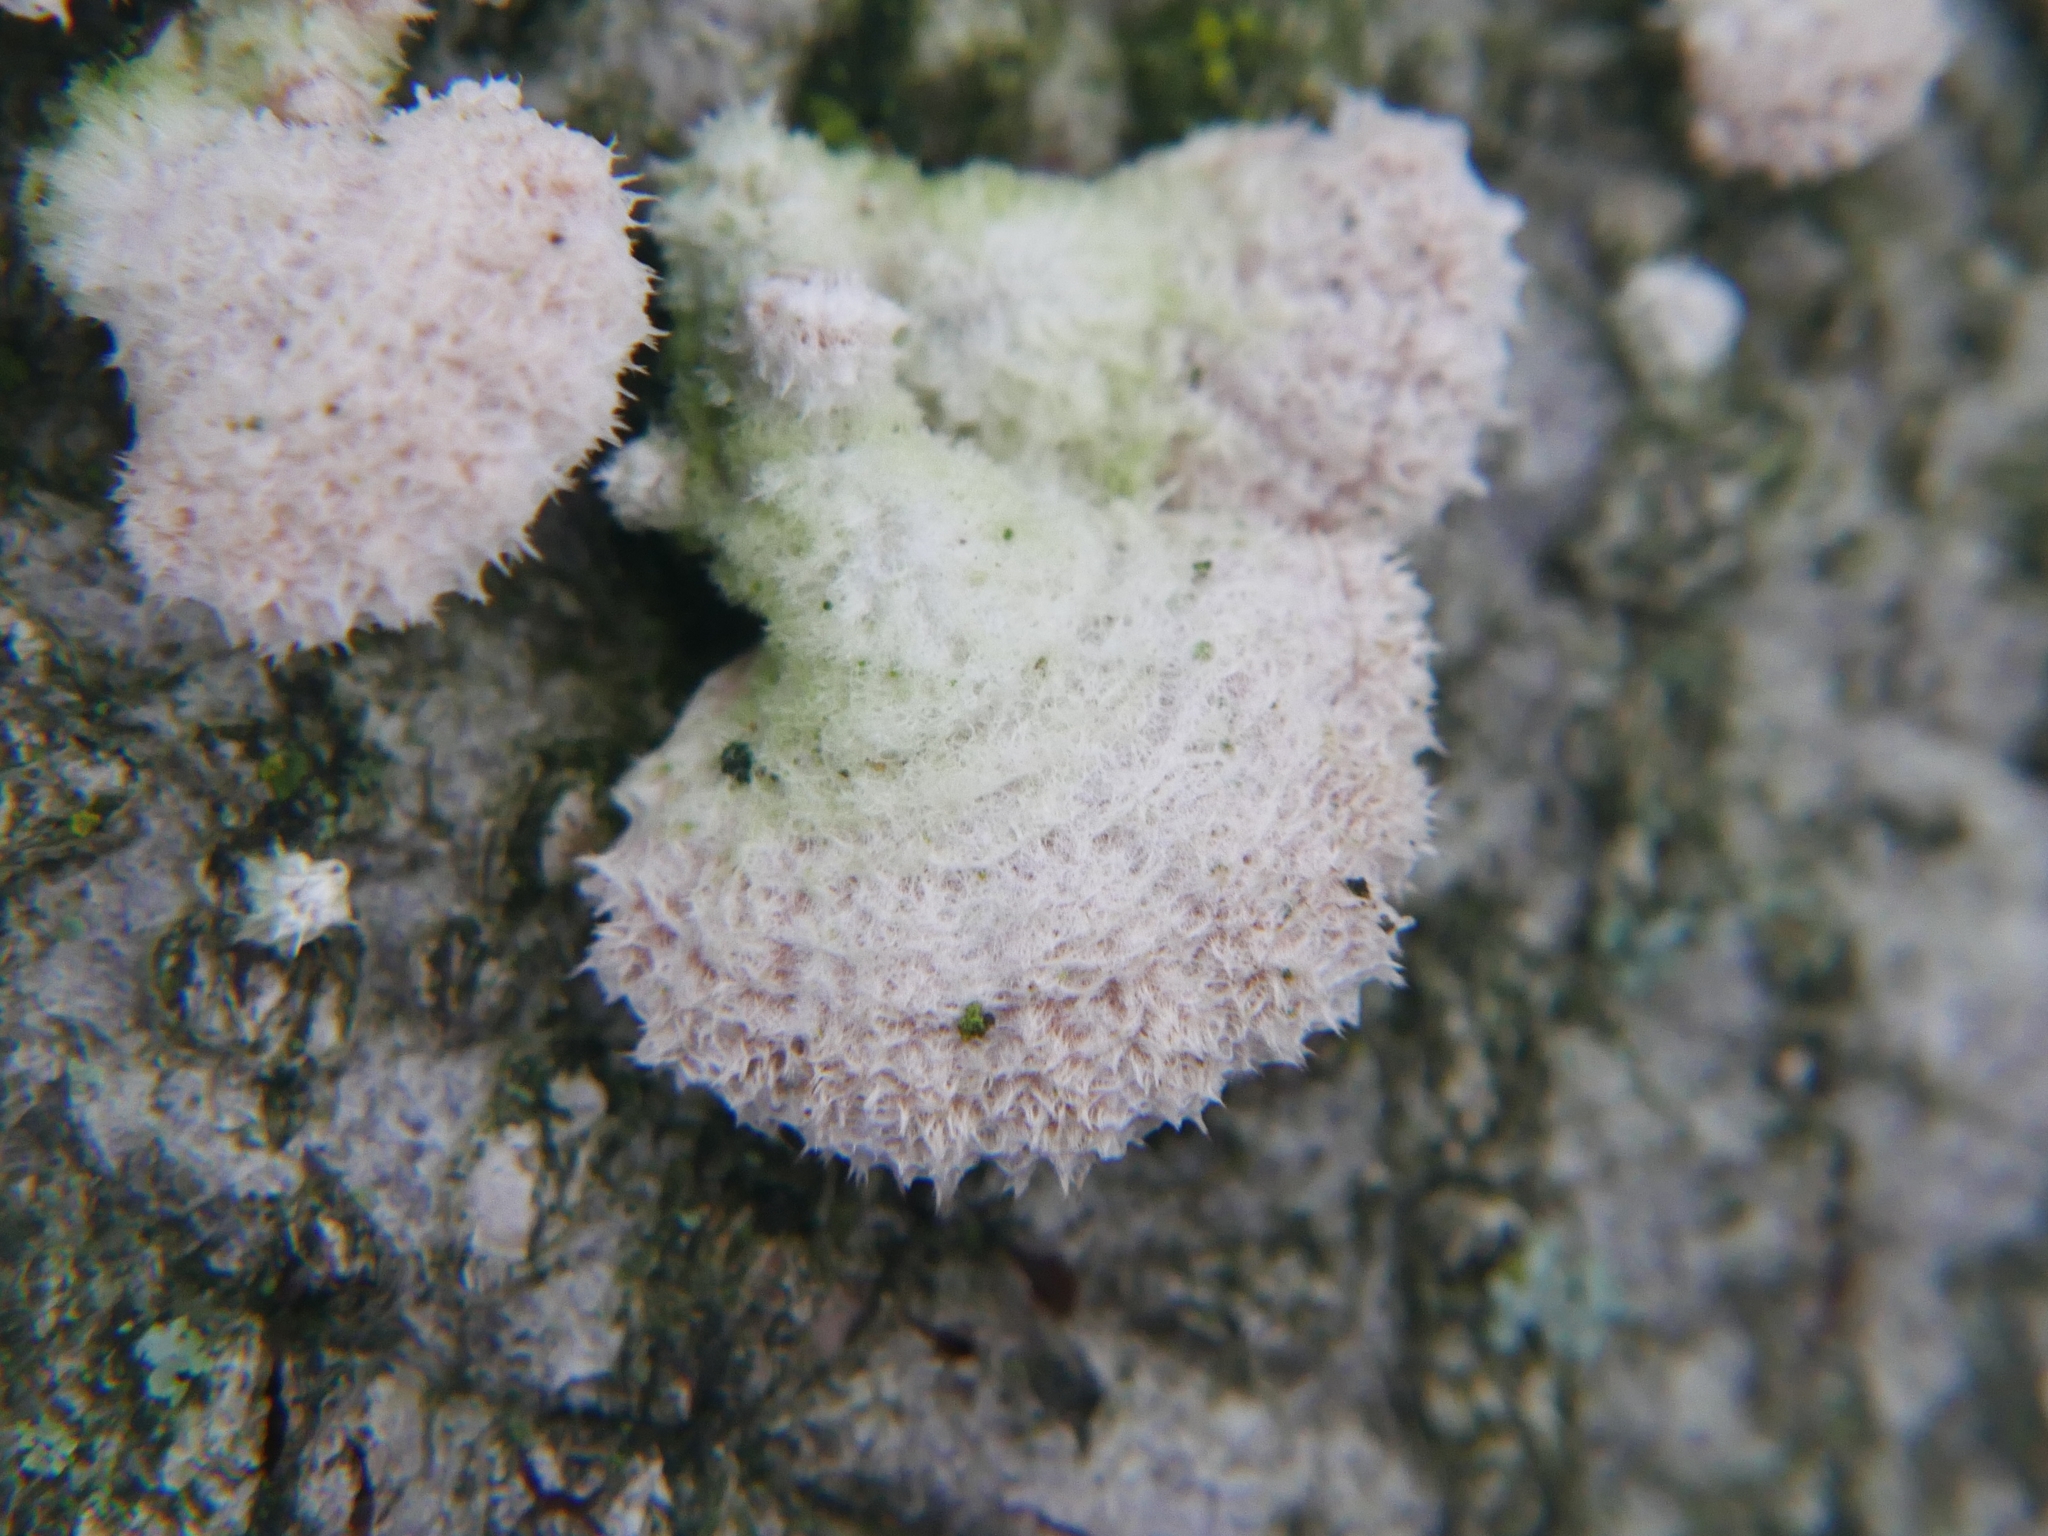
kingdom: Fungi
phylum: Basidiomycota
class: Agaricomycetes
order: Agaricales
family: Schizophyllaceae
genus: Schizophyllum
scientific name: Schizophyllum commune
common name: Common porecrust
